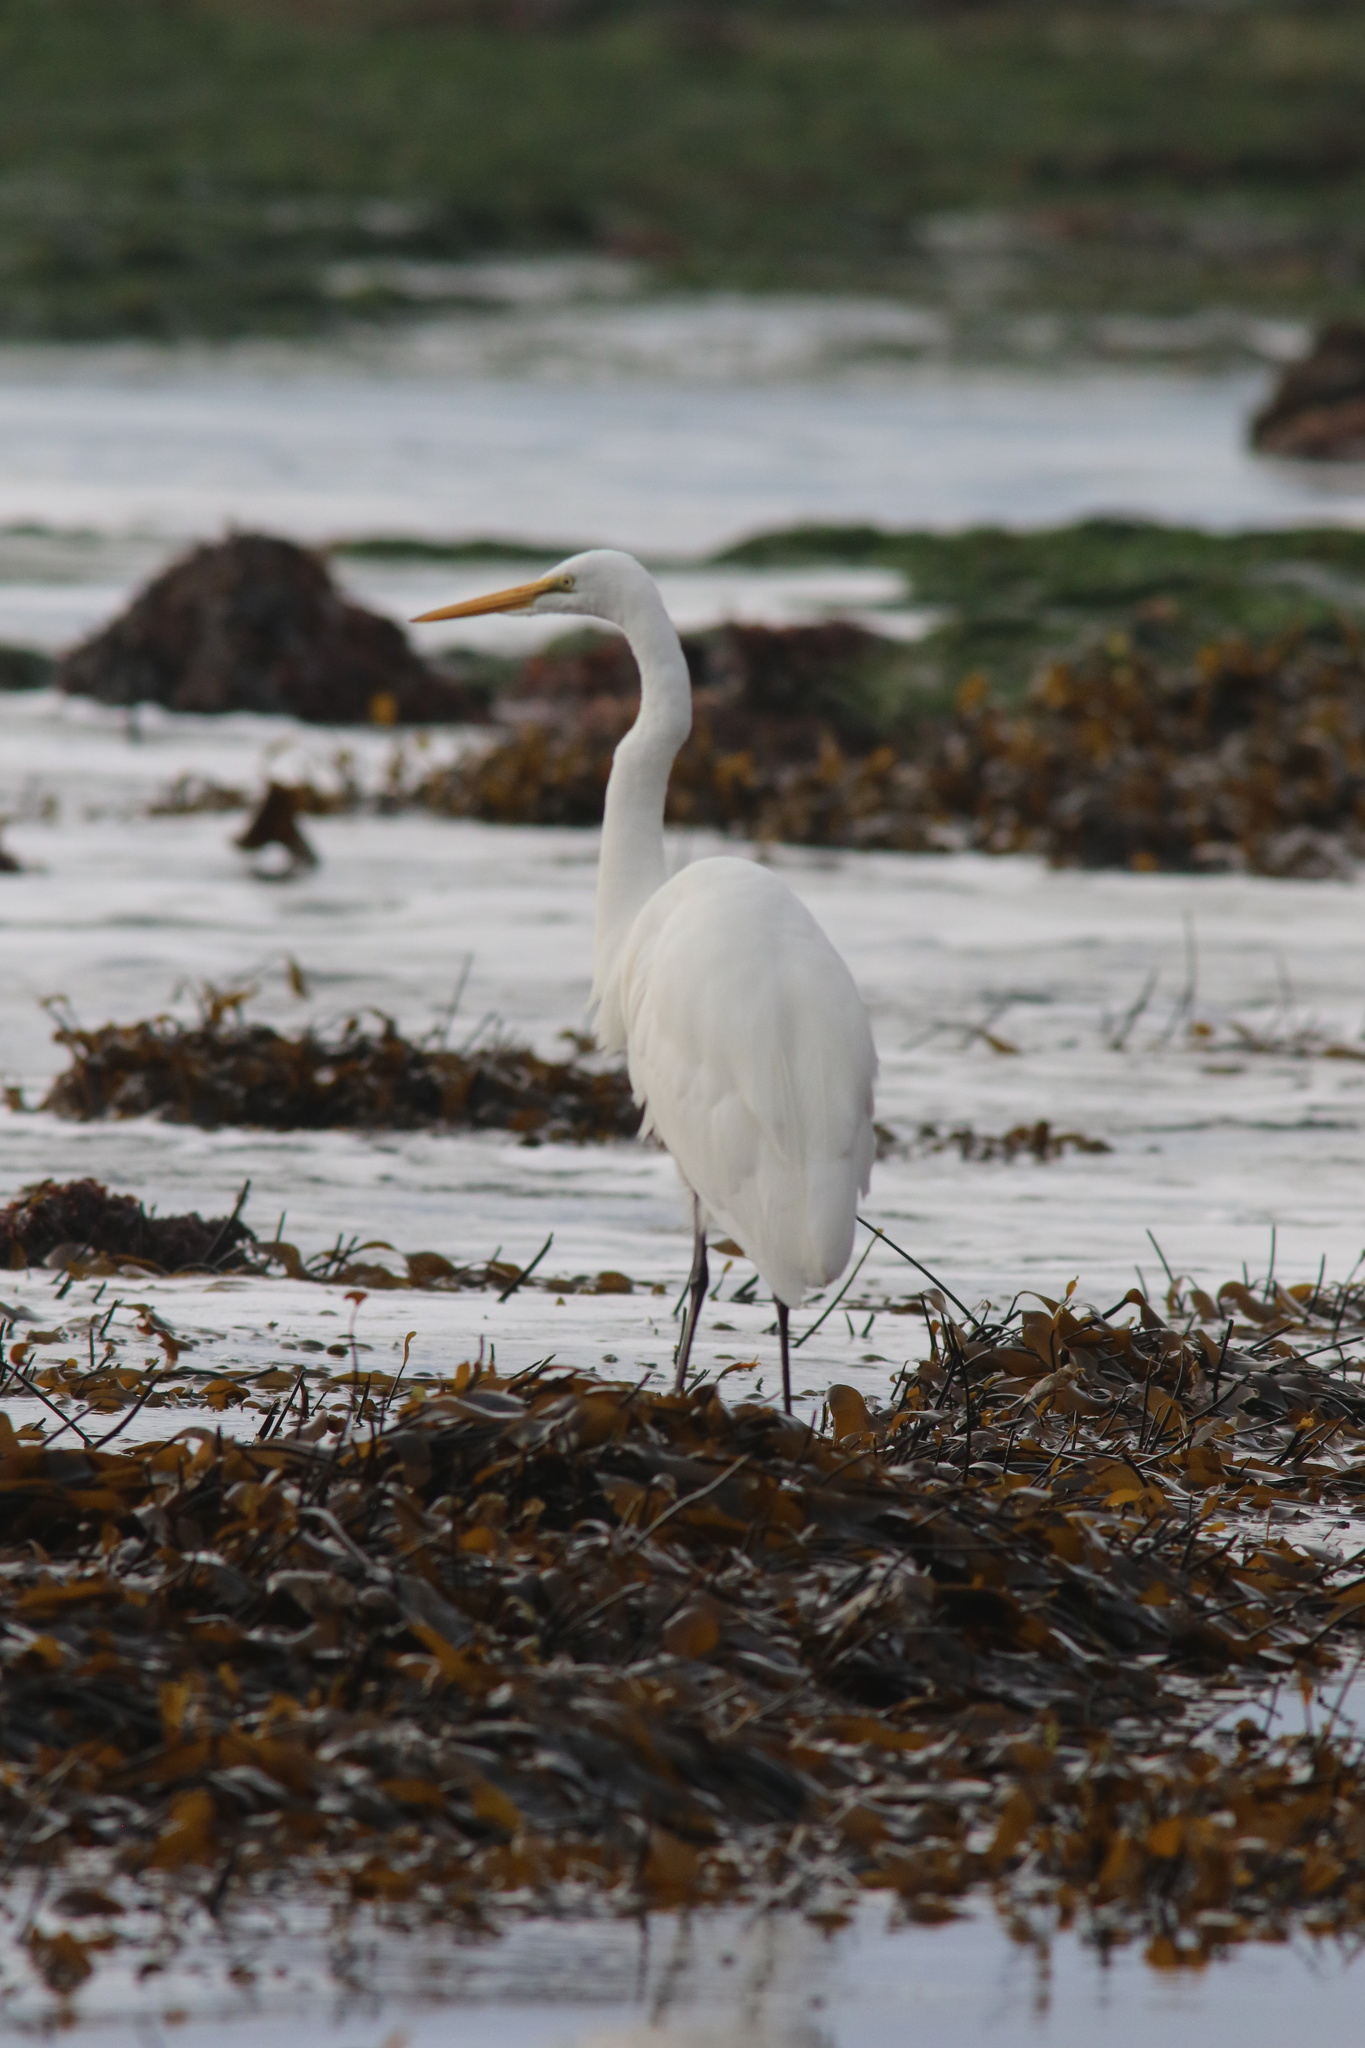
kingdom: Animalia
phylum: Chordata
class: Aves
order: Pelecaniformes
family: Ardeidae
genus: Ardea
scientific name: Ardea alba
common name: Great egret
